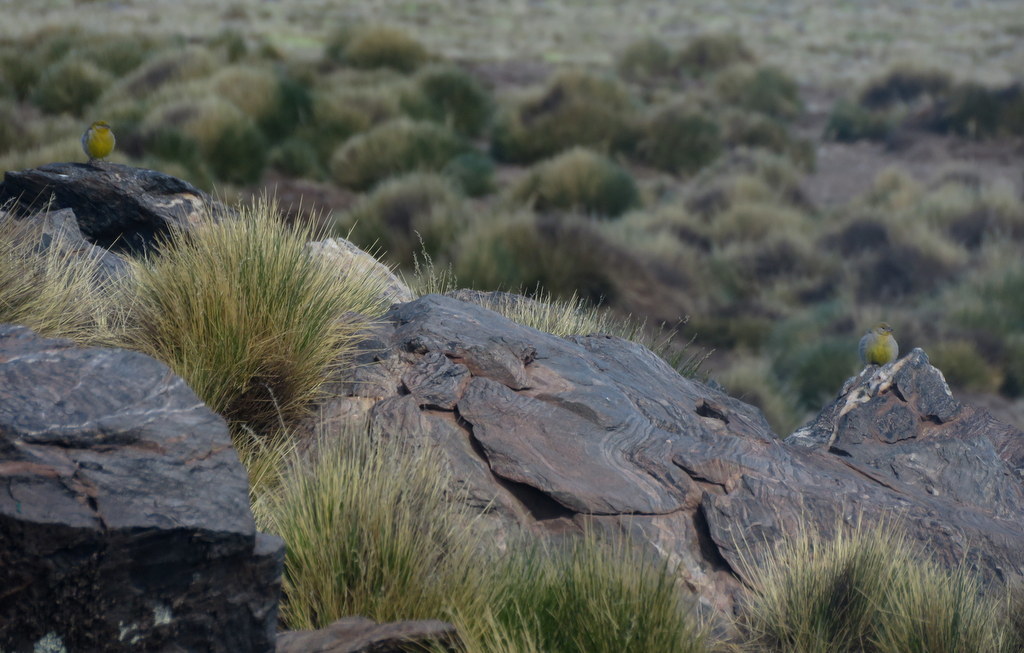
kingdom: Animalia
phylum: Chordata
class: Aves
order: Passeriformes
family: Thraupidae
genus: Sicalis
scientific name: Sicalis uropigyalis
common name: Bright-rumped yellow finch
